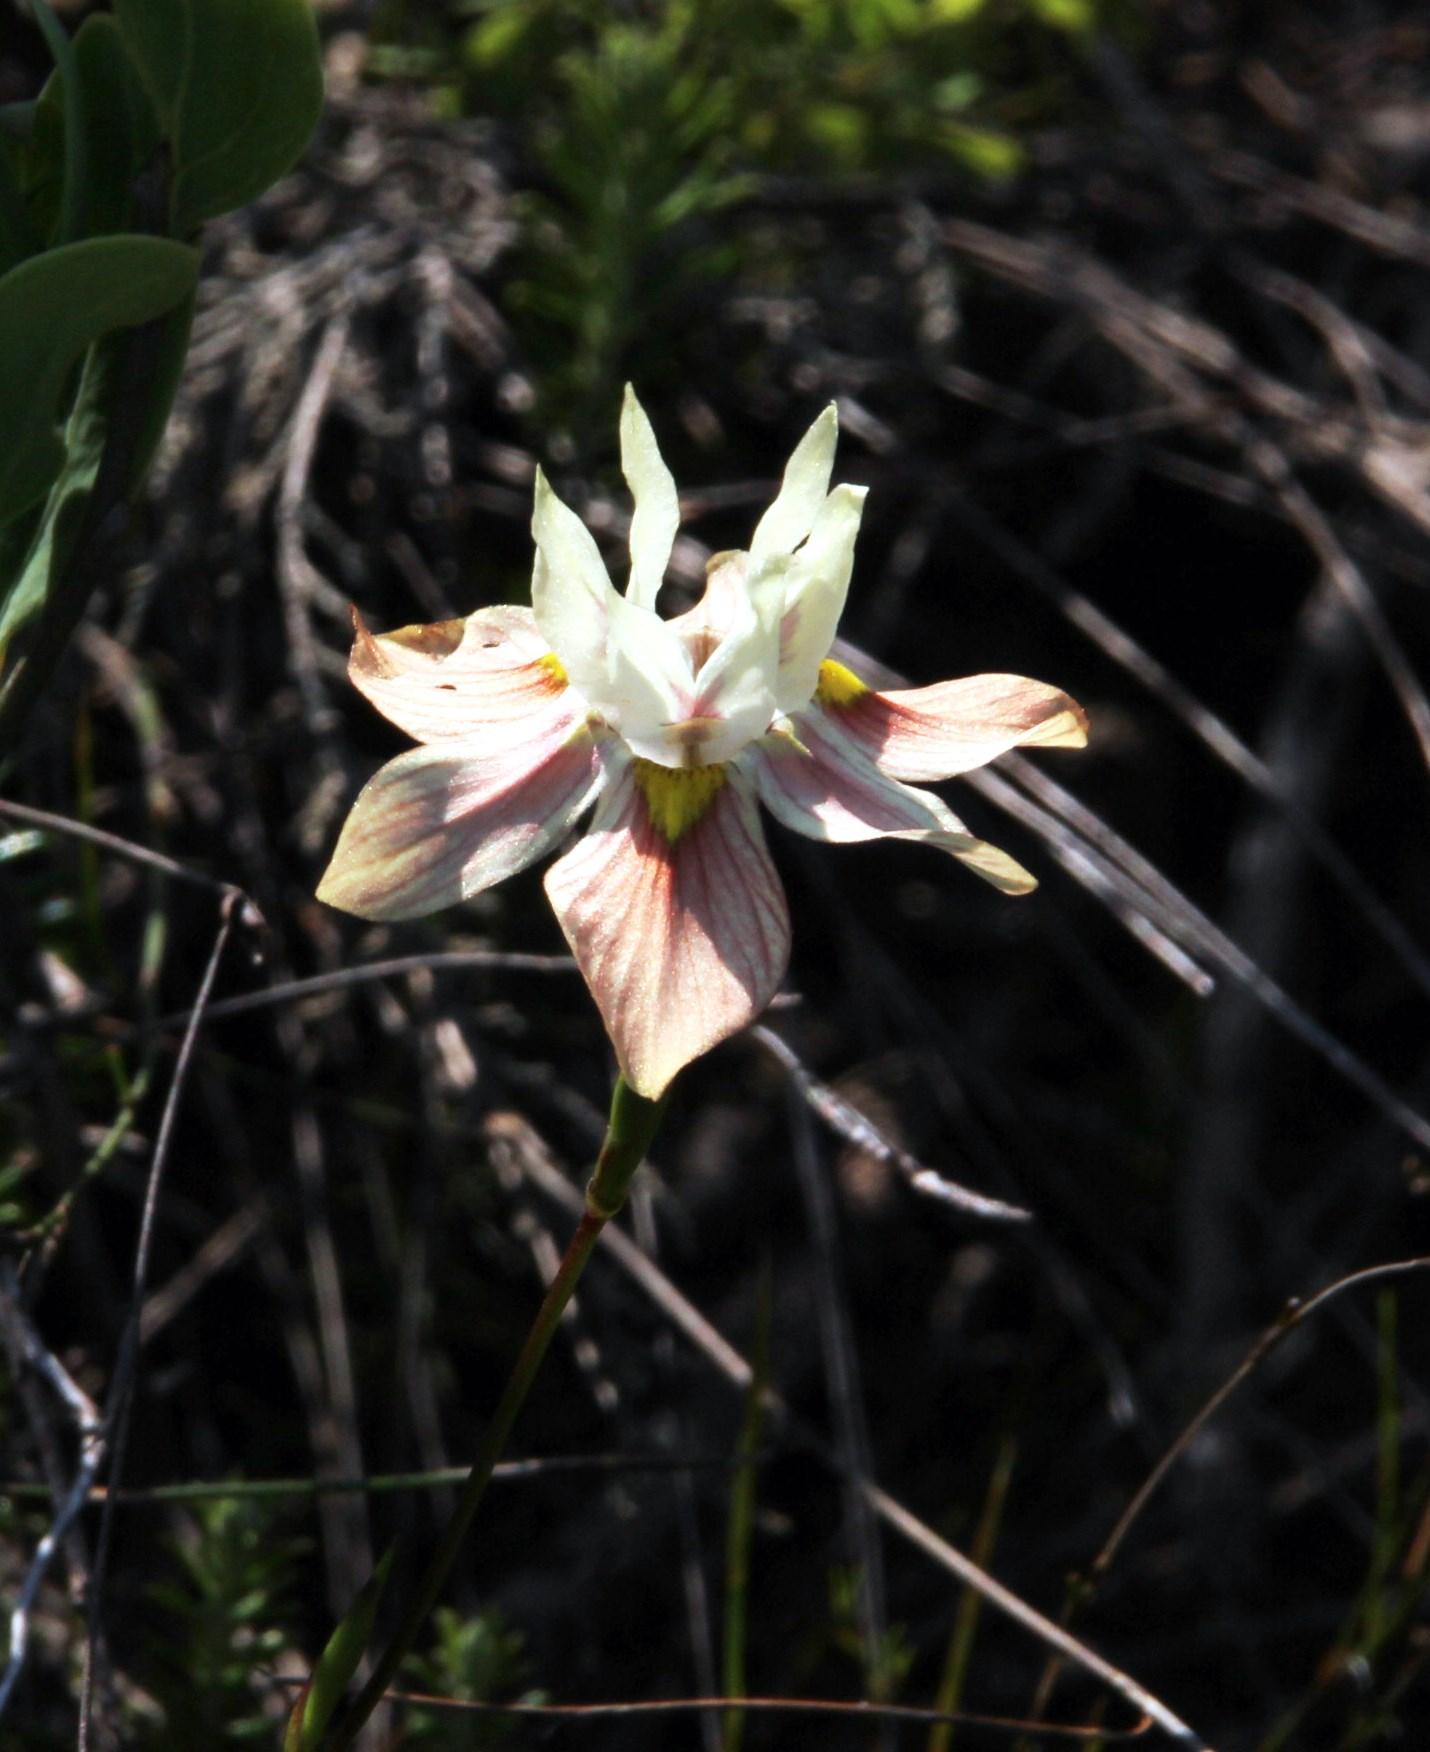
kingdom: Plantae
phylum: Tracheophyta
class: Liliopsida
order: Asparagales
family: Iridaceae
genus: Moraea
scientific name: Moraea gawleri
